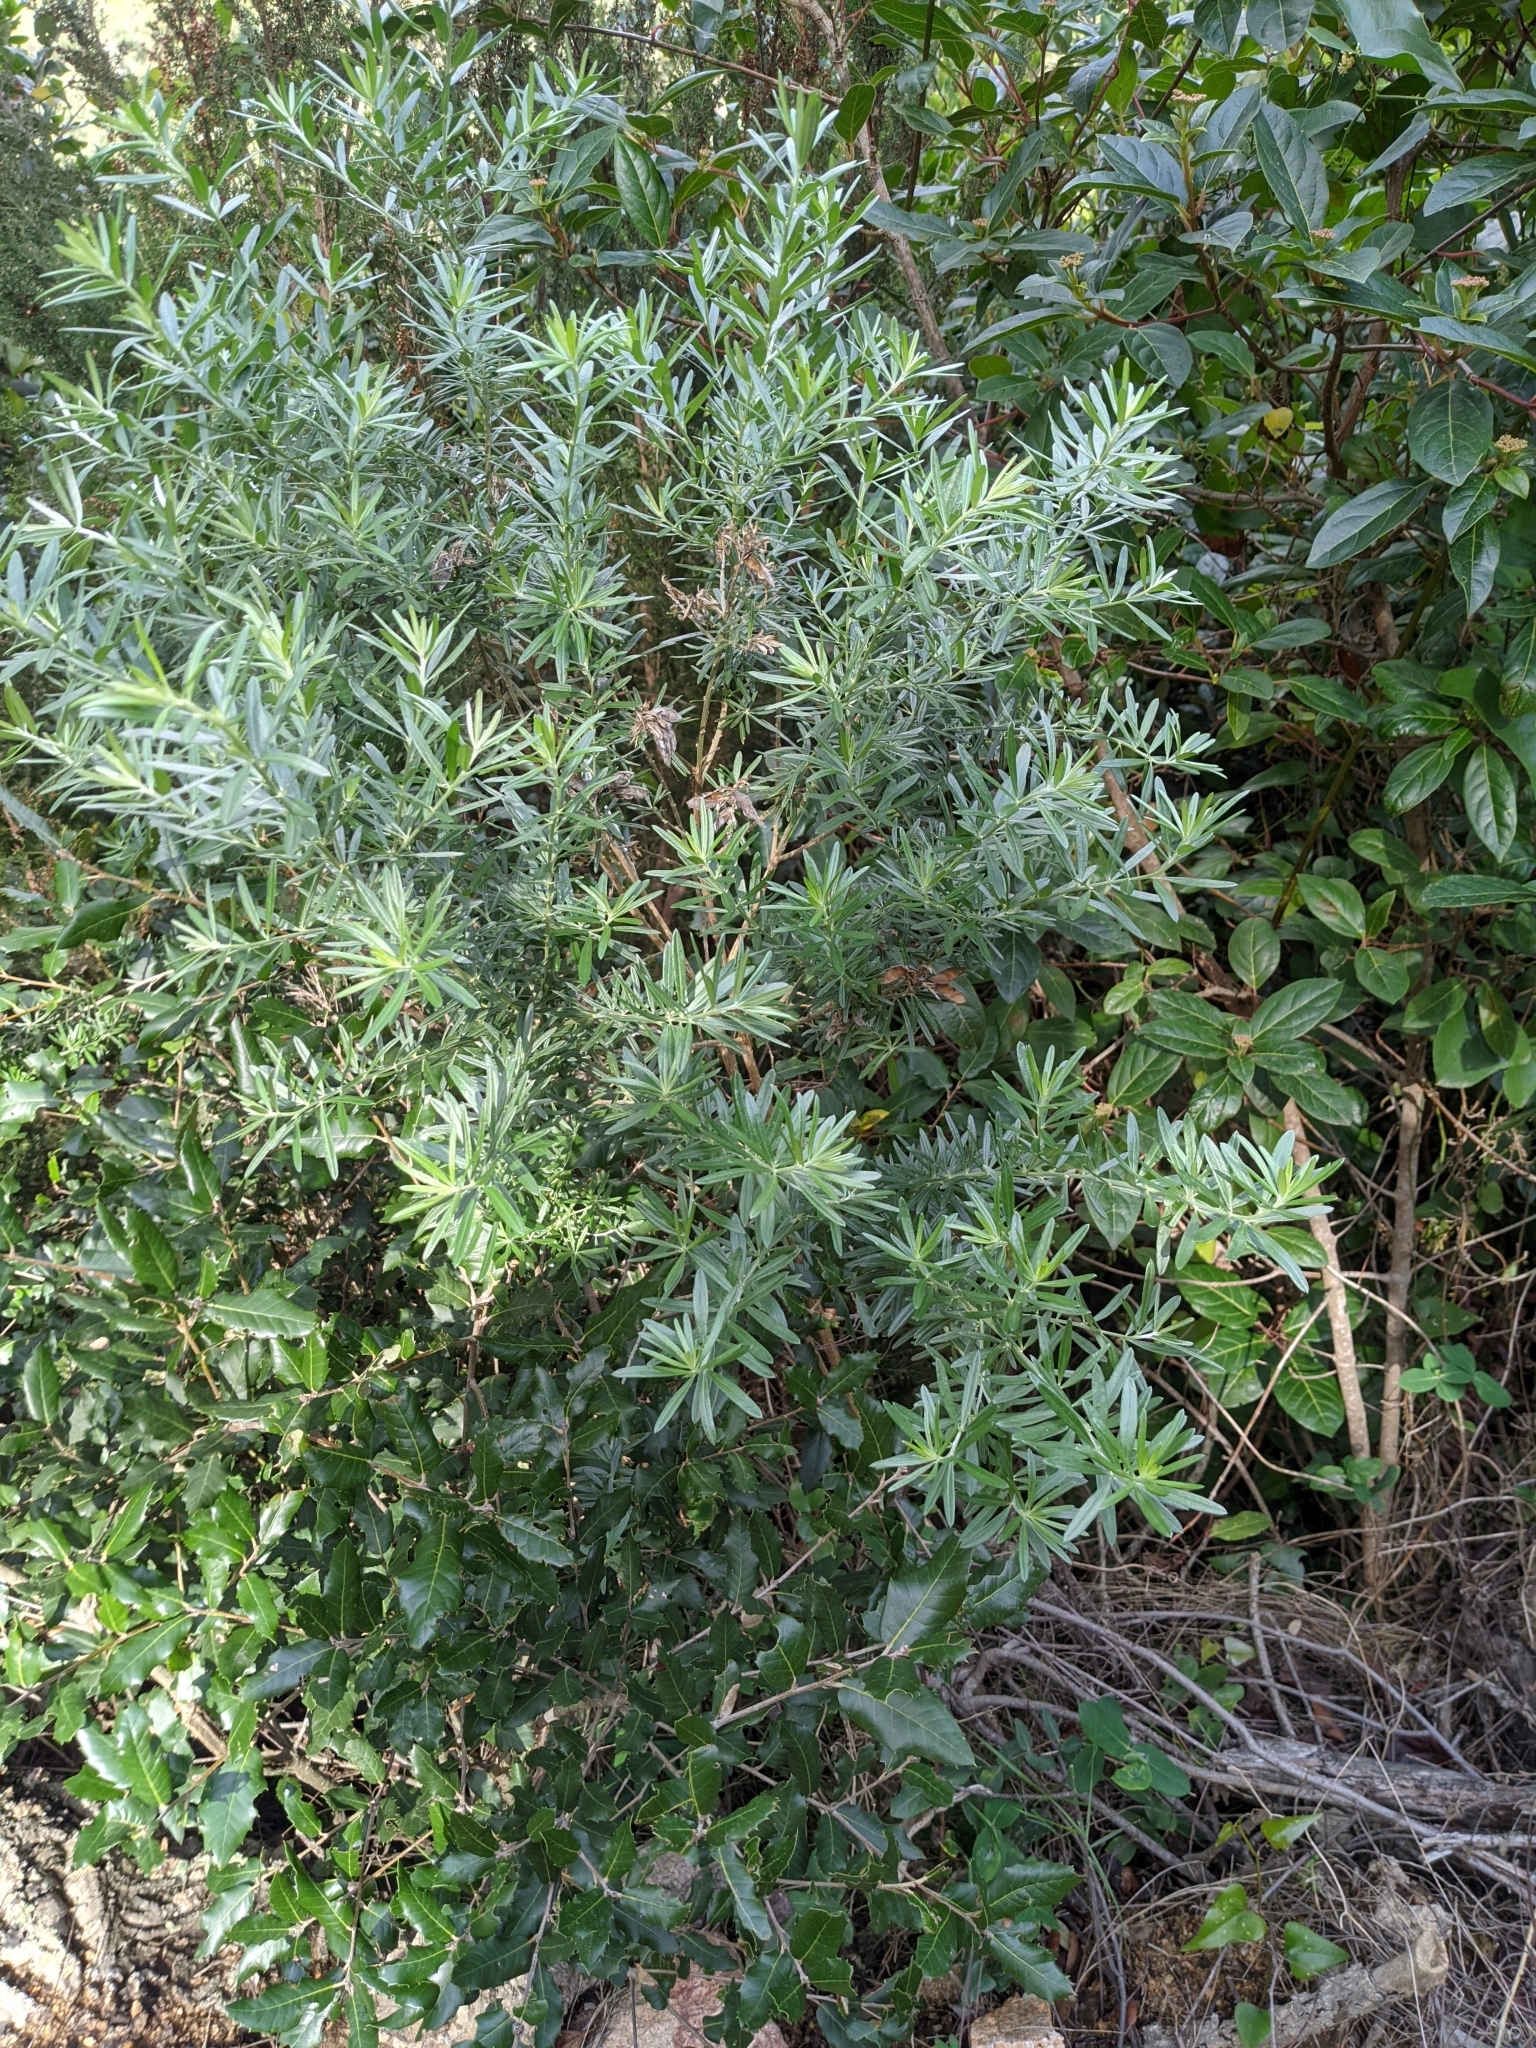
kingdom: Plantae
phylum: Tracheophyta
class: Magnoliopsida
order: Fabales
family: Fabaceae
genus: Genista
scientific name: Genista linifolia
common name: Mediterranean broom
